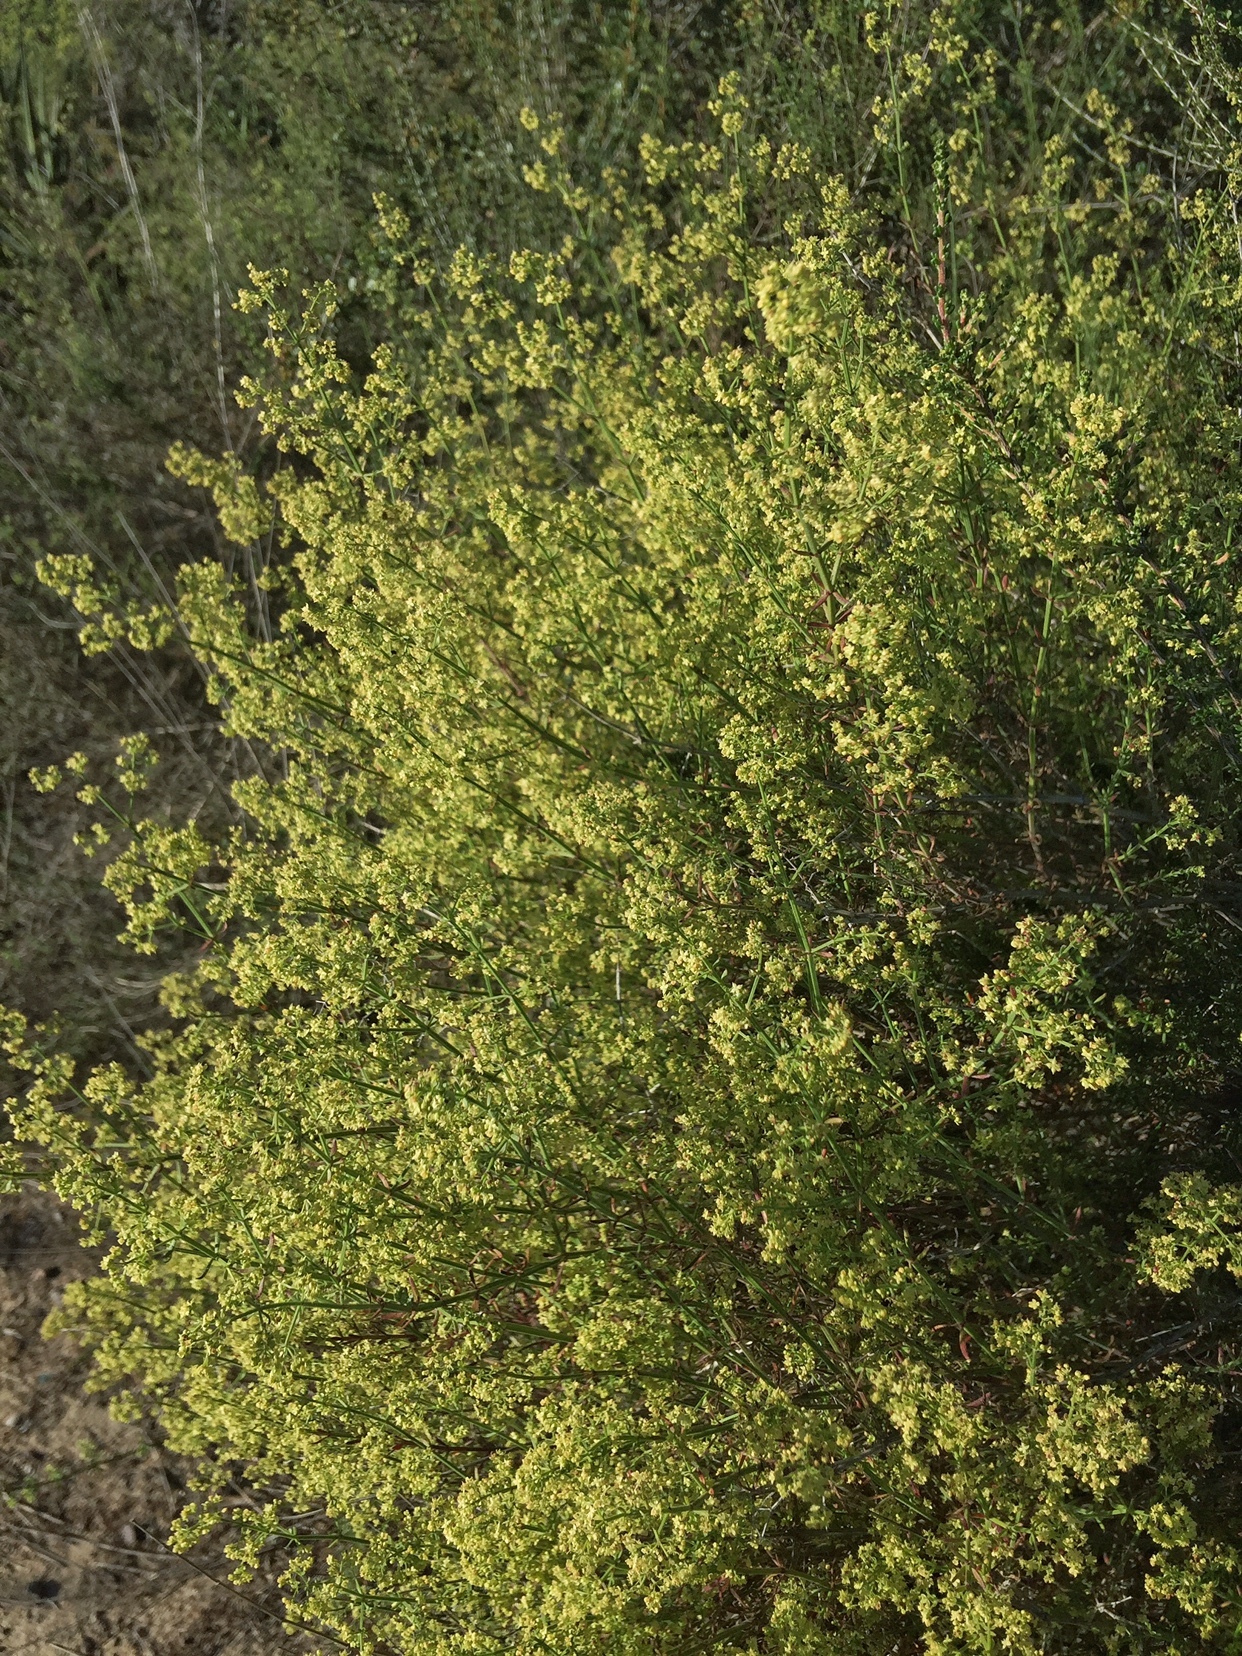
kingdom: Plantae
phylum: Tracheophyta
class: Magnoliopsida
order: Gentianales
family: Rubiaceae
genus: Galium
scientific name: Galium angustifolium
